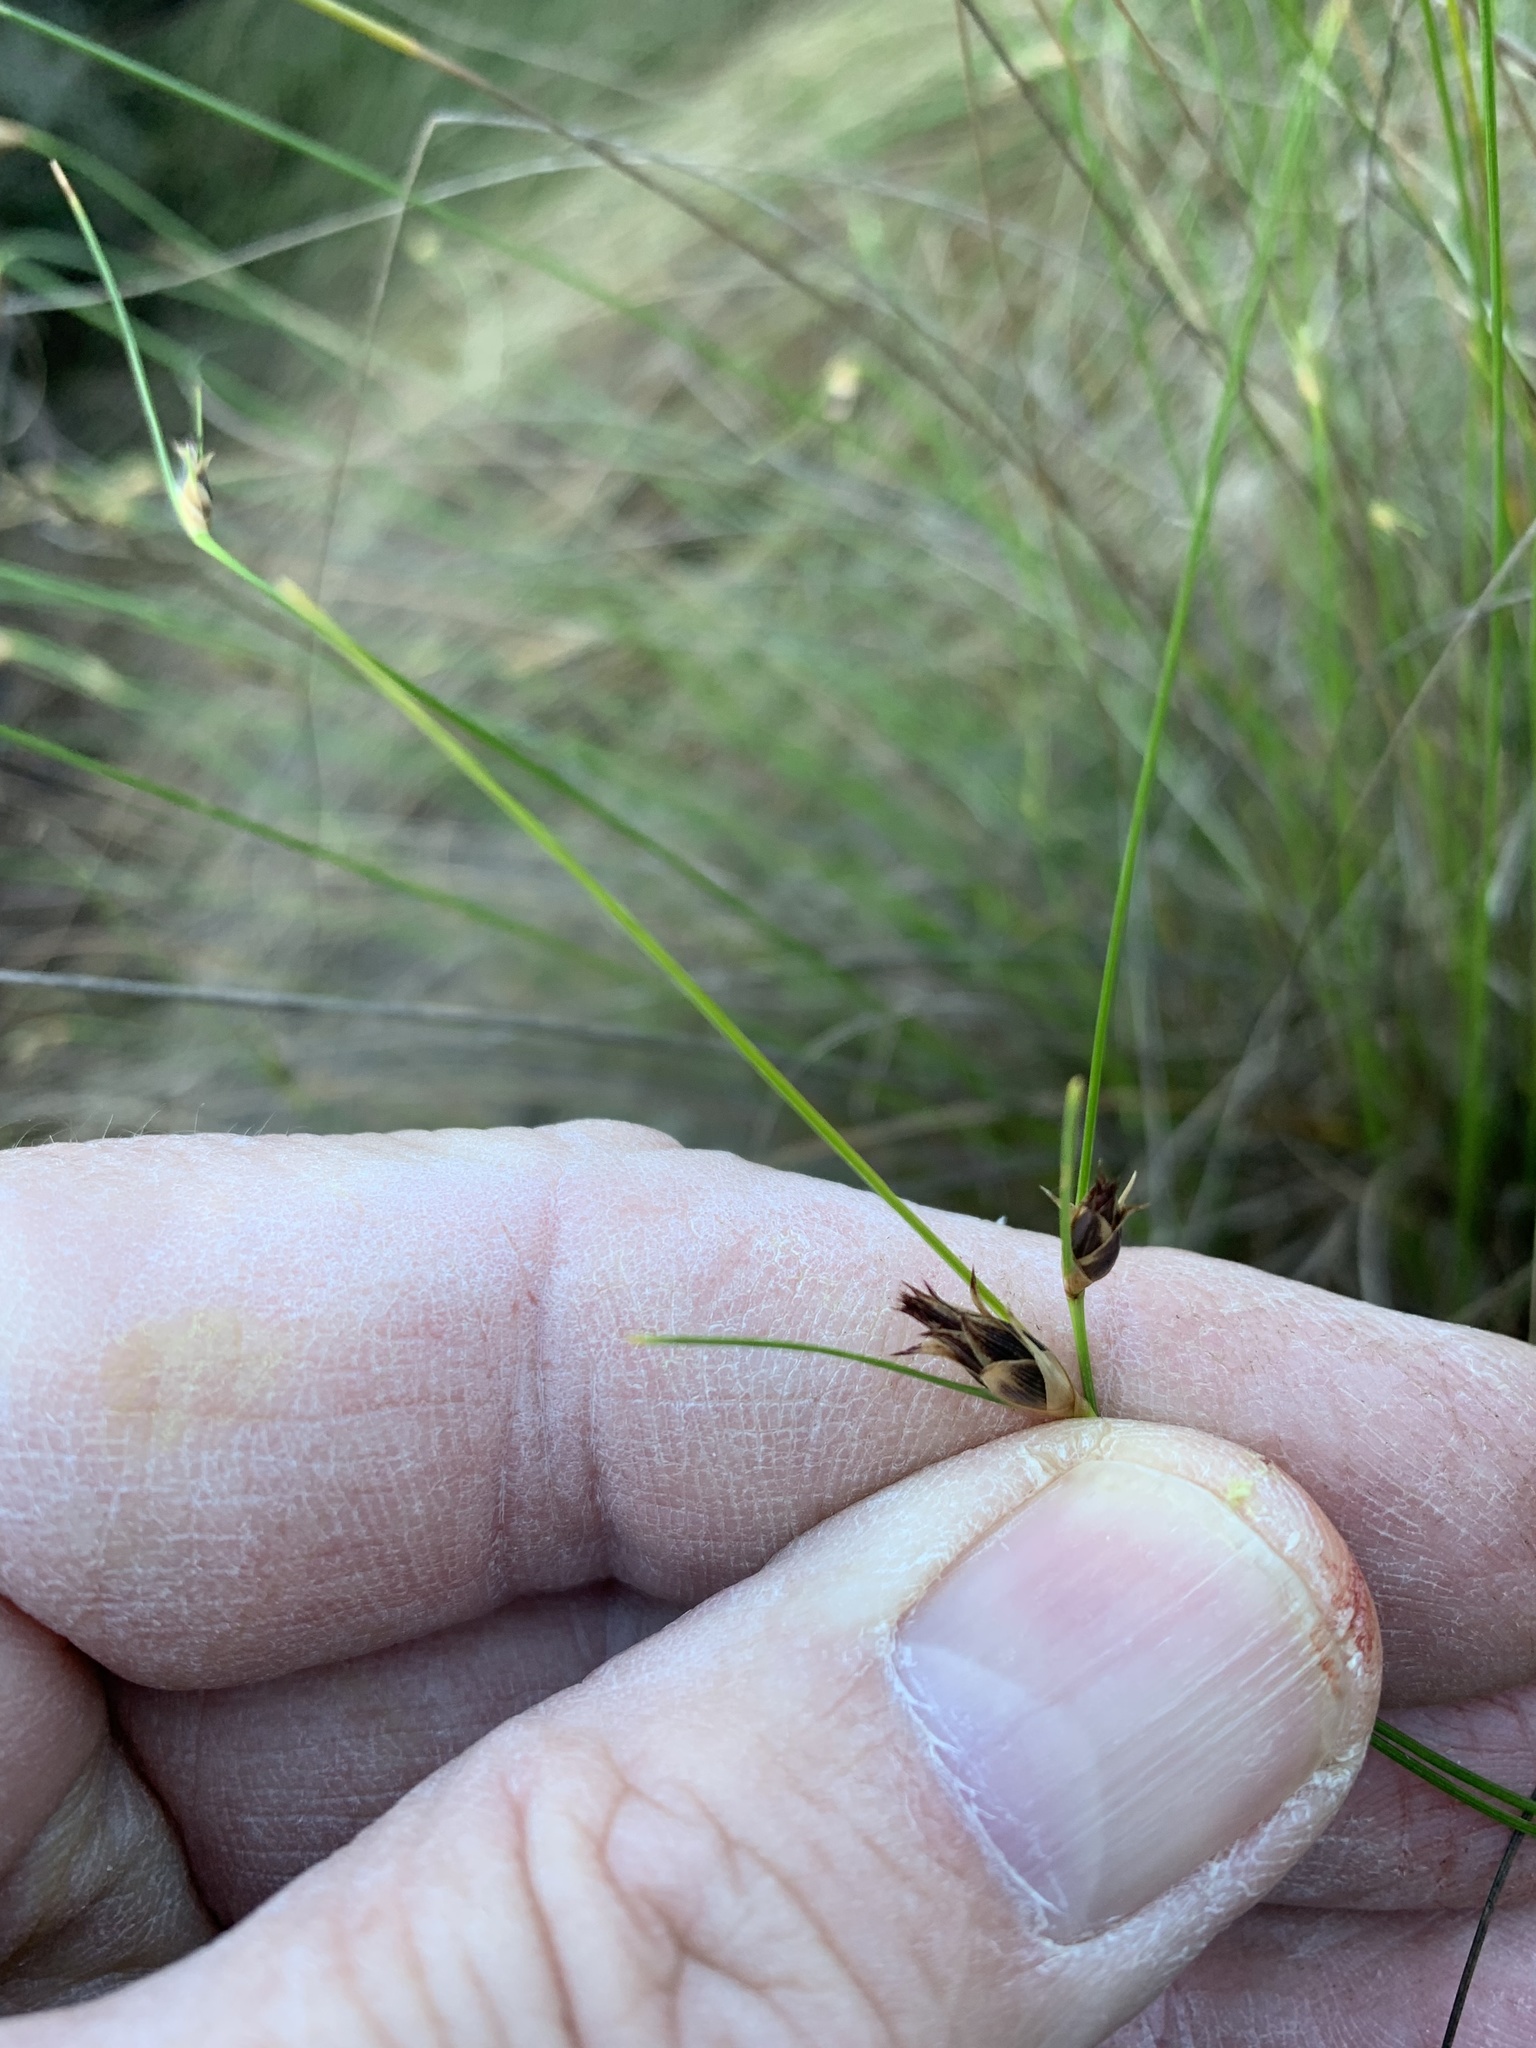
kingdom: Plantae
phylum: Tracheophyta
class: Liliopsida
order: Poales
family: Cyperaceae
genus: Ficinia
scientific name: Ficinia nigrescens
